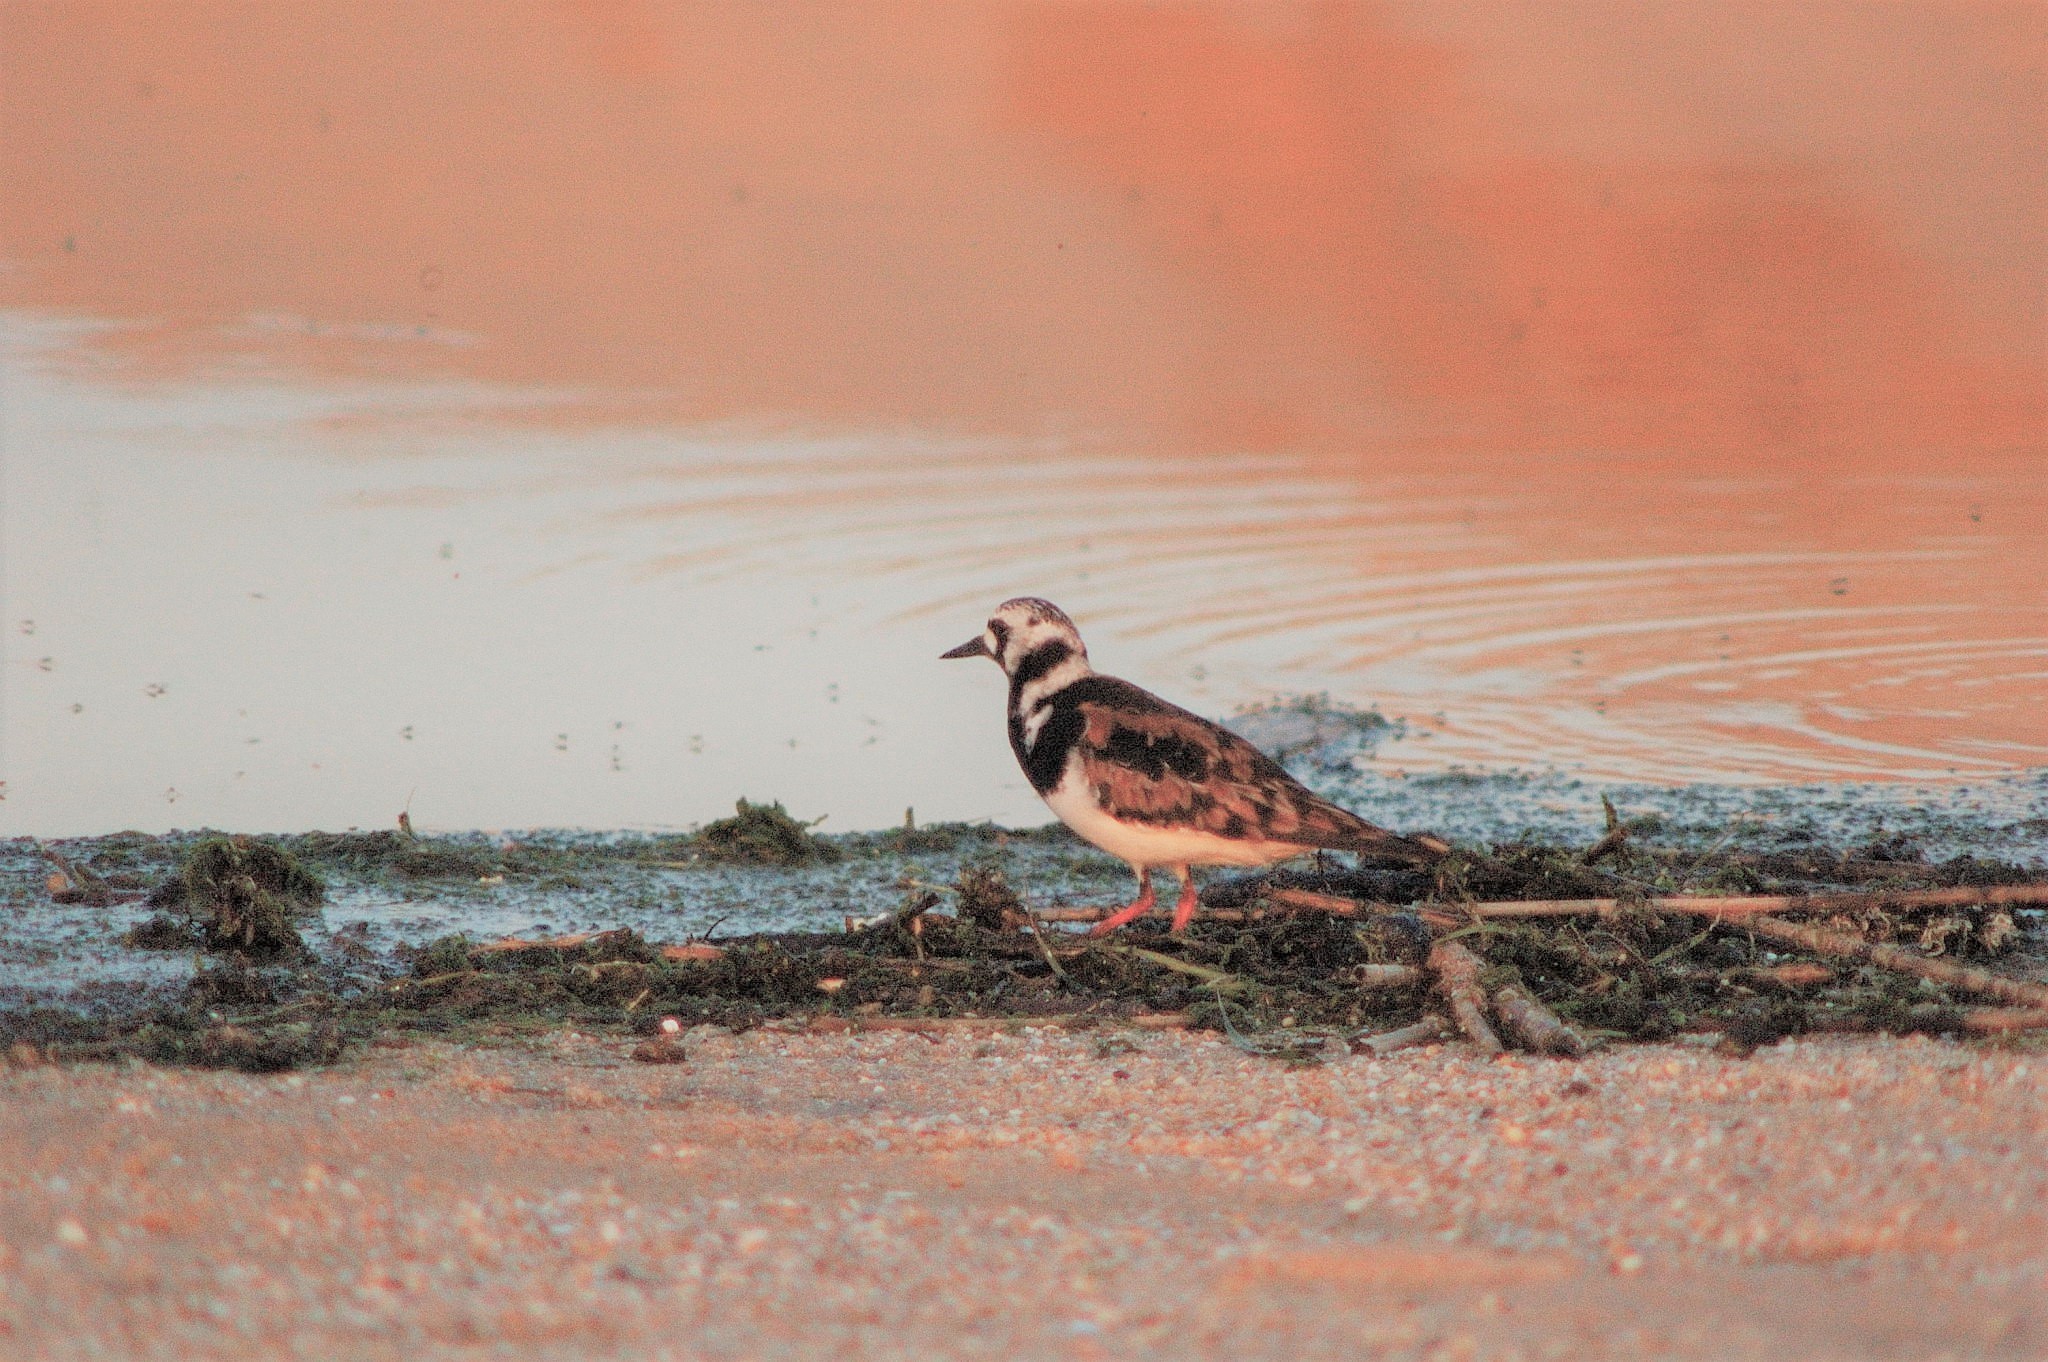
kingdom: Animalia
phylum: Chordata
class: Aves
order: Charadriiformes
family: Scolopacidae
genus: Arenaria
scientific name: Arenaria interpres
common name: Ruddy turnstone
